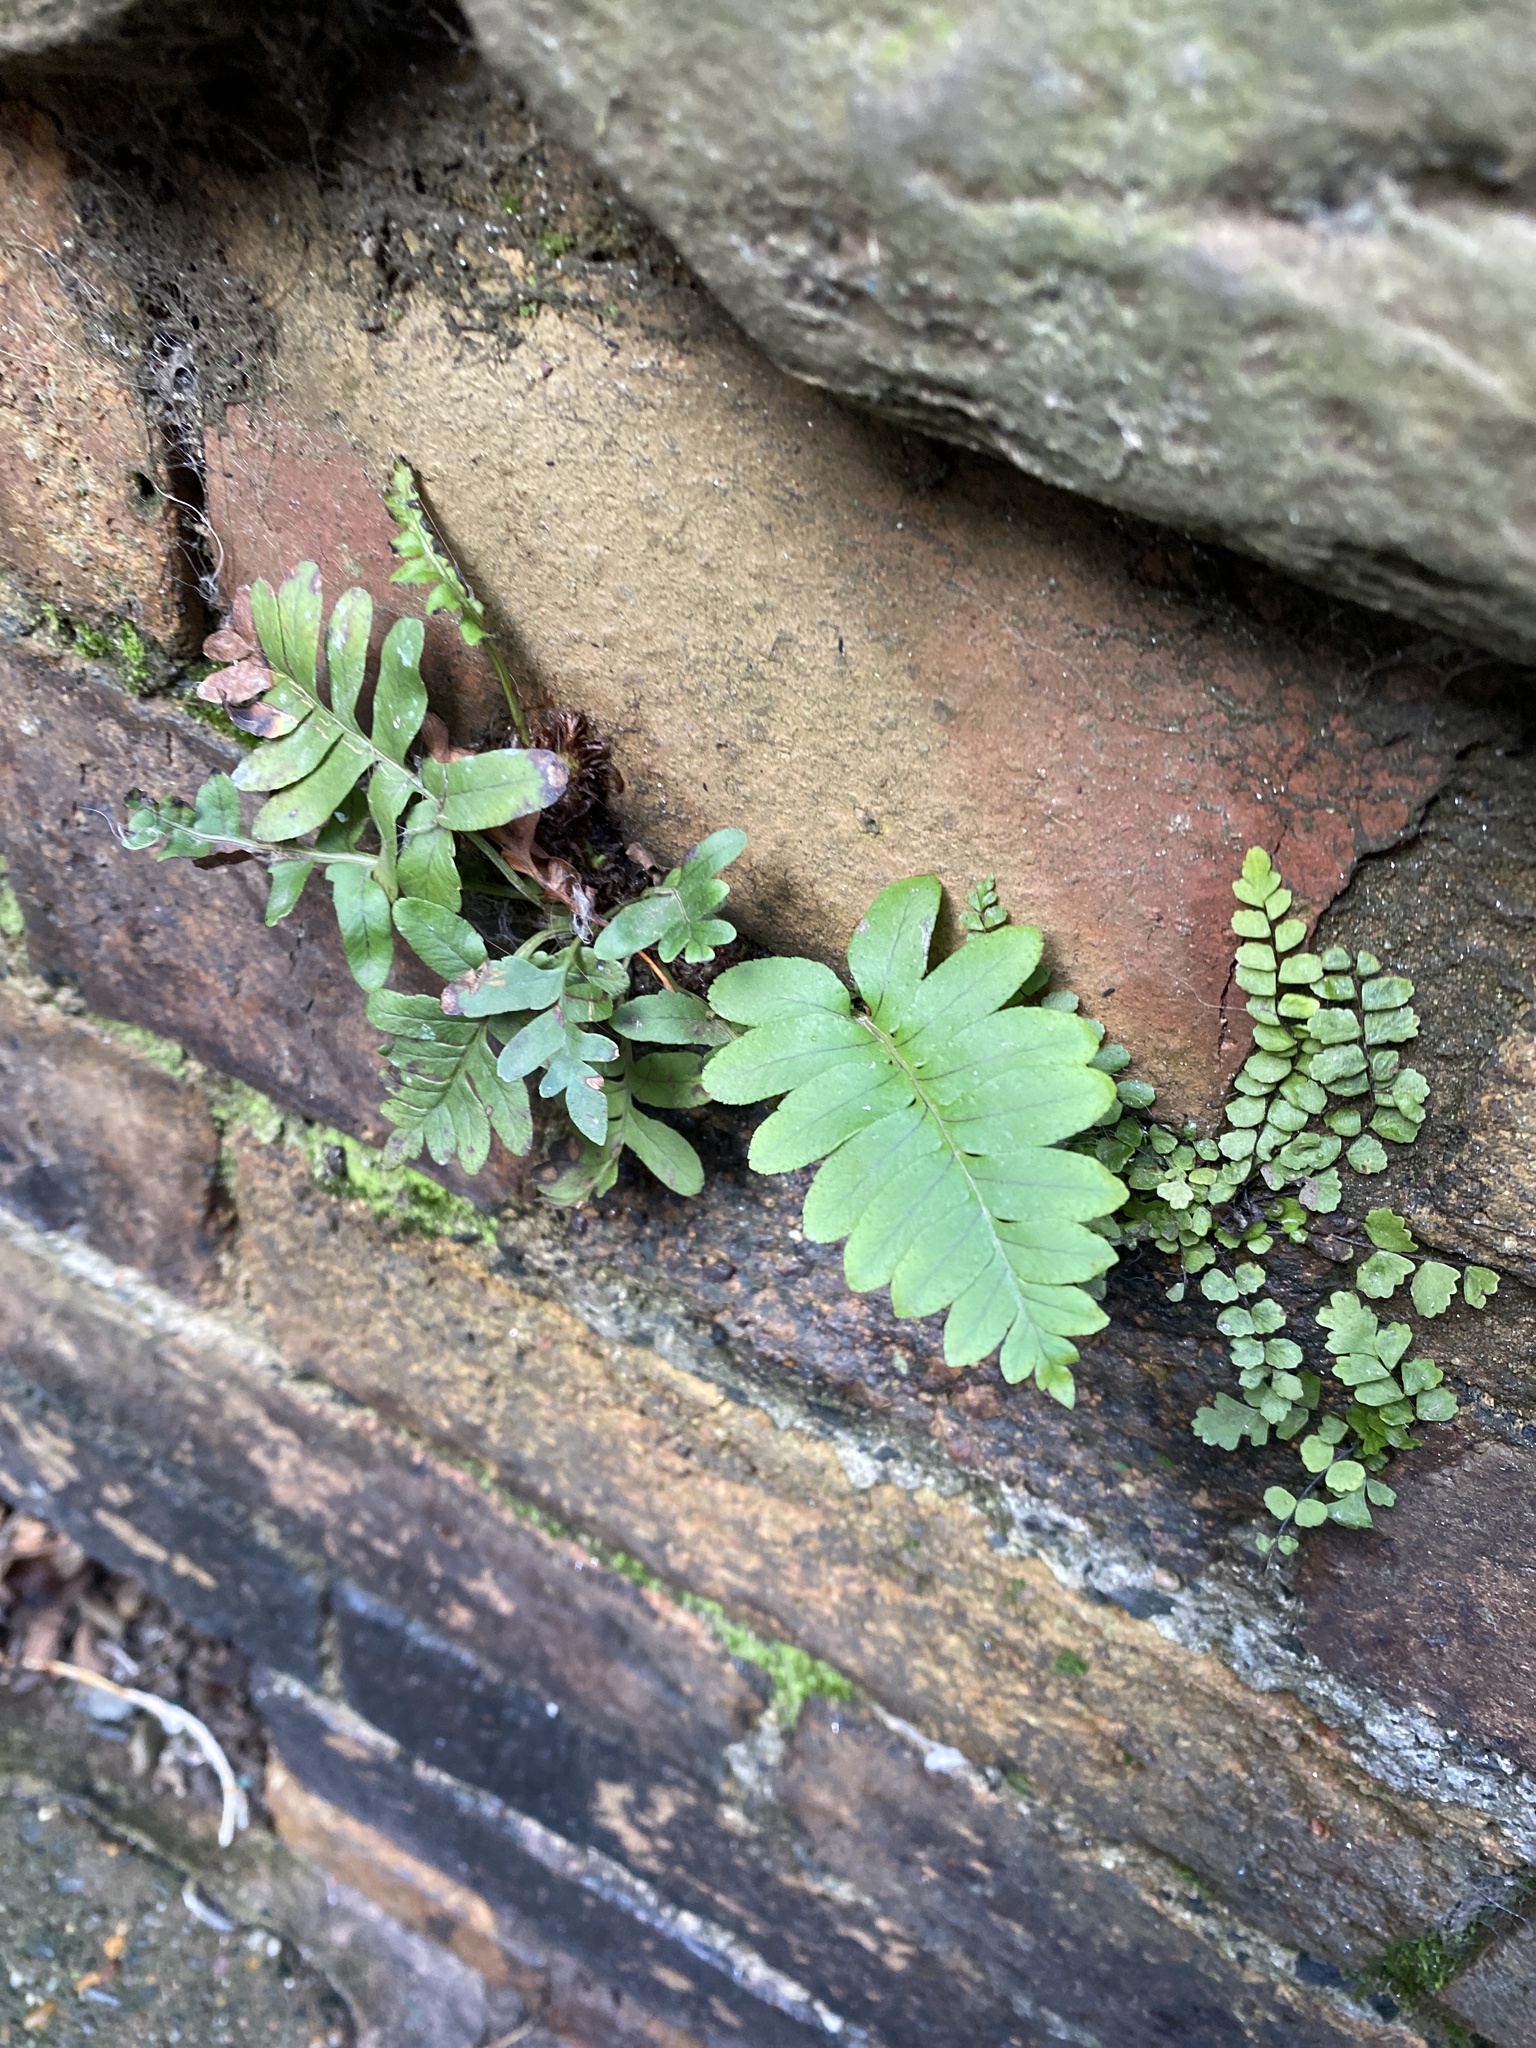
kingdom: Plantae
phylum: Tracheophyta
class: Polypodiopsida
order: Polypodiales
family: Polypodiaceae
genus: Polypodium
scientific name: Polypodium
